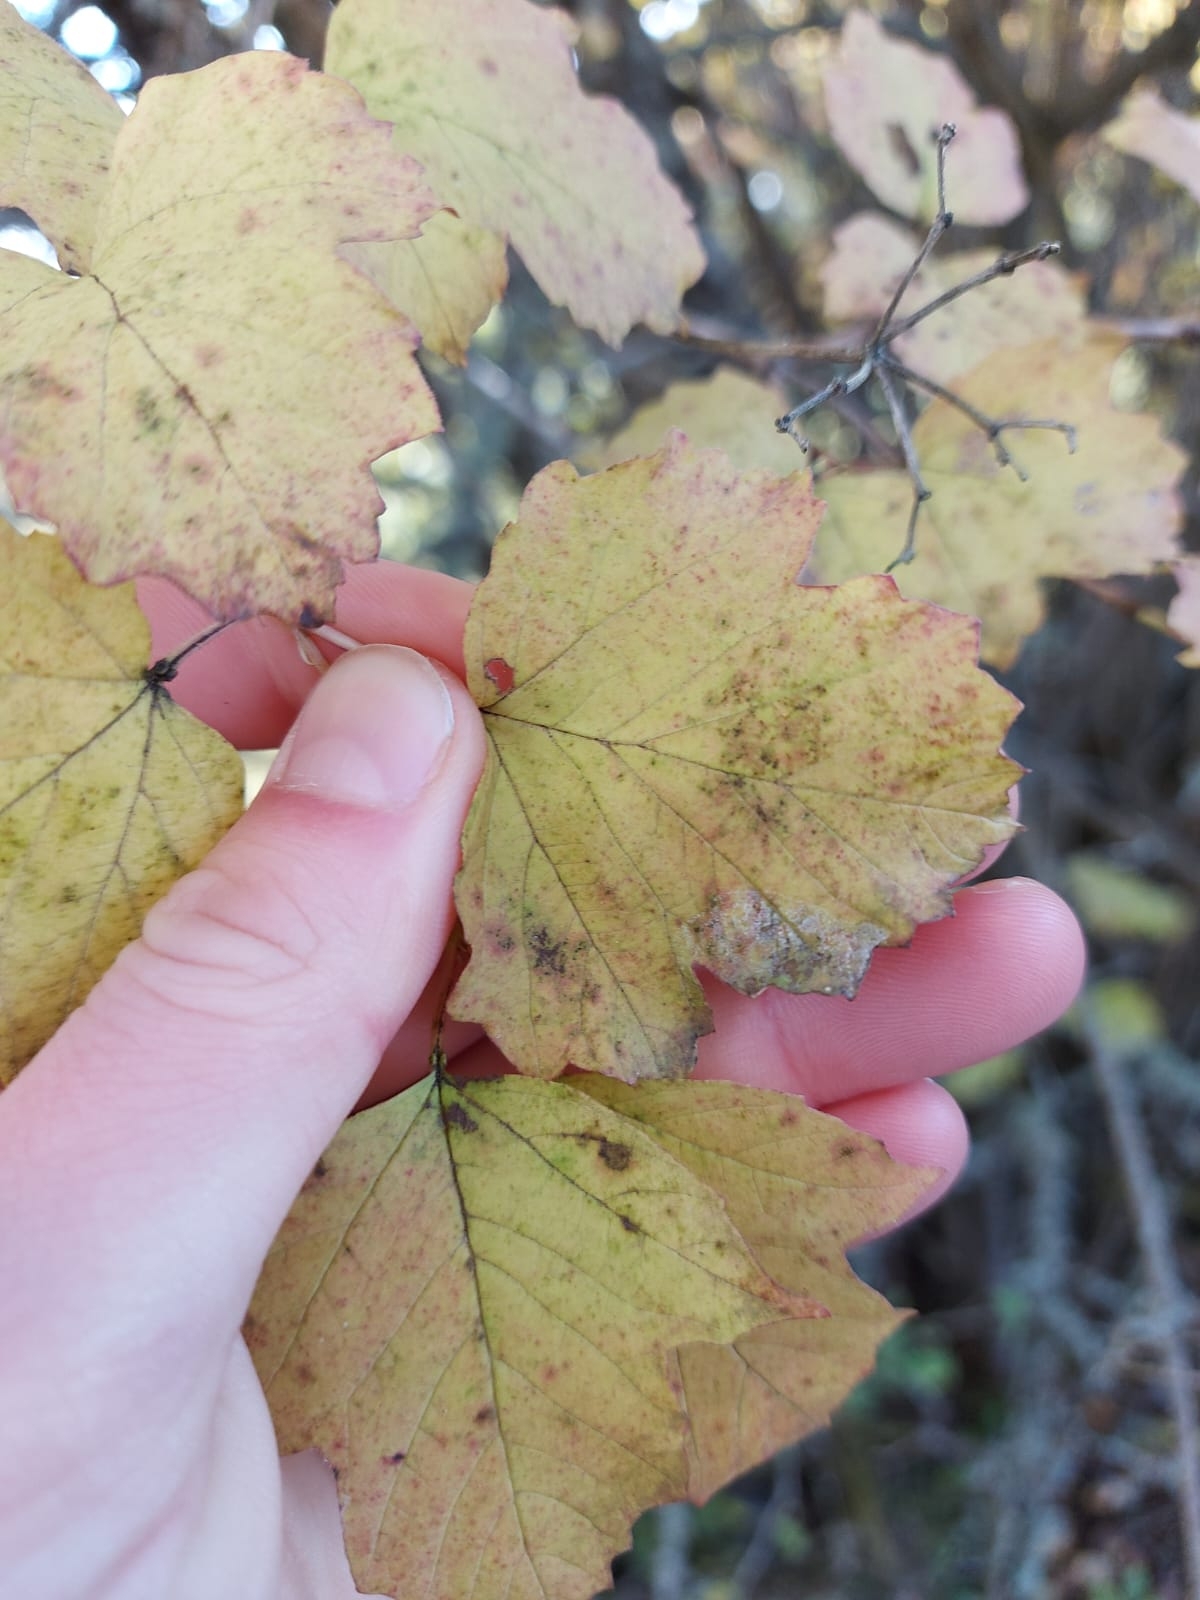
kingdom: Plantae
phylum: Tracheophyta
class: Magnoliopsida
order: Dipsacales
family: Viburnaceae
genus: Viburnum
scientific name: Viburnum opulus
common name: Guelder-rose
